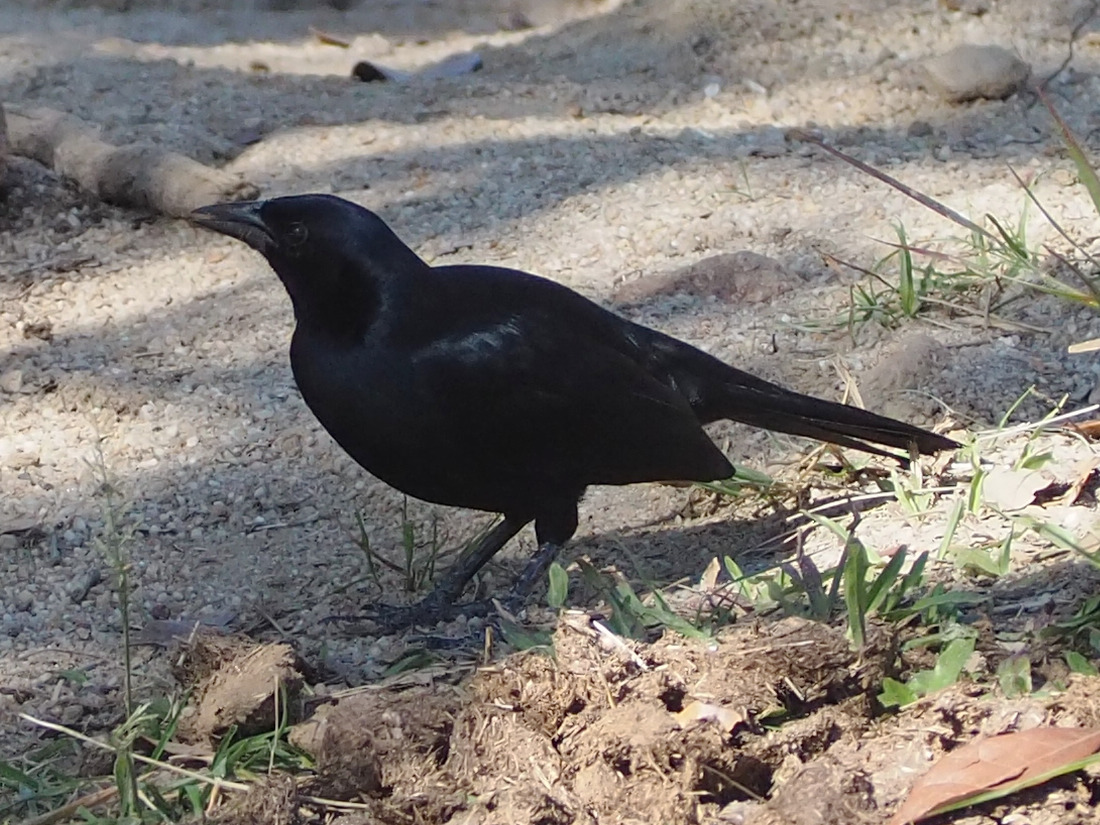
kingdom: Animalia
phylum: Chordata
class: Aves
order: Passeriformes
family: Icteridae
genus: Dives
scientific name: Dives dives
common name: Melodious blackbird
